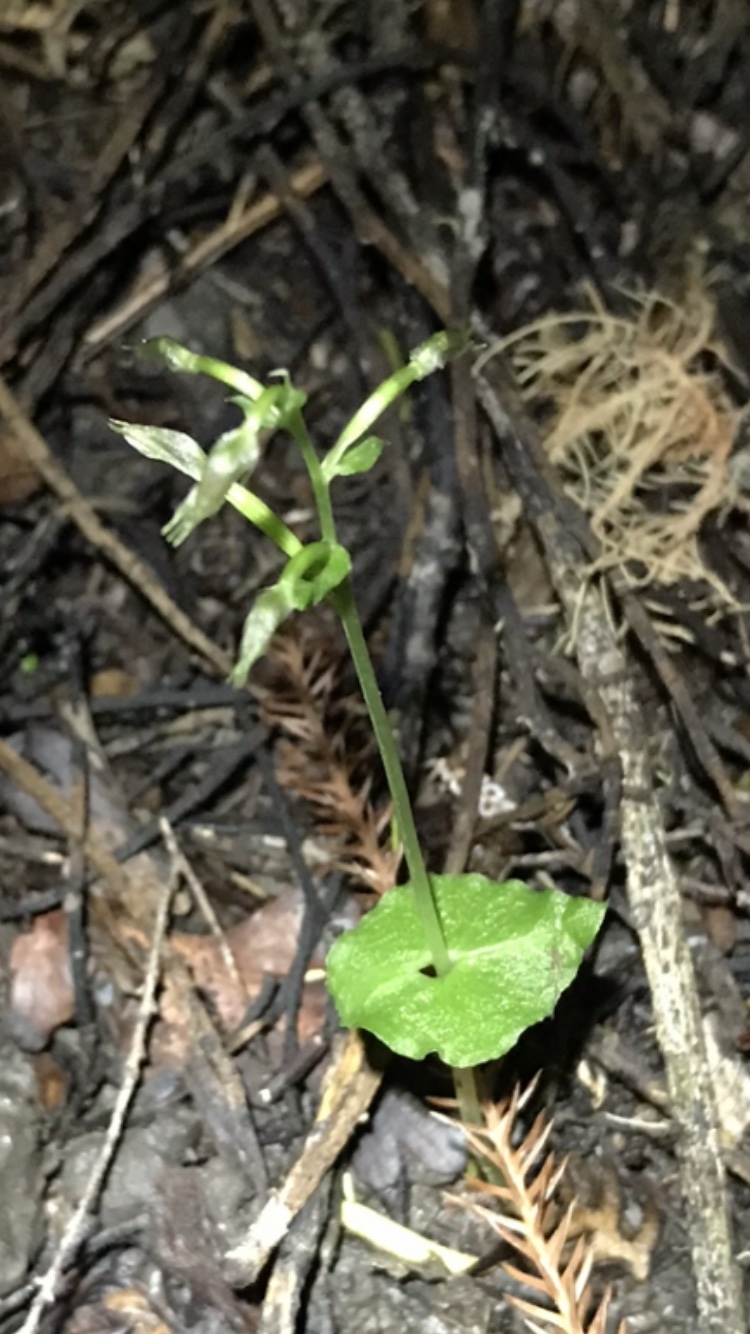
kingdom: Plantae
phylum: Tracheophyta
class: Liliopsida
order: Asparagales
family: Orchidaceae
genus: Acianthus
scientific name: Acianthus sinclairii
